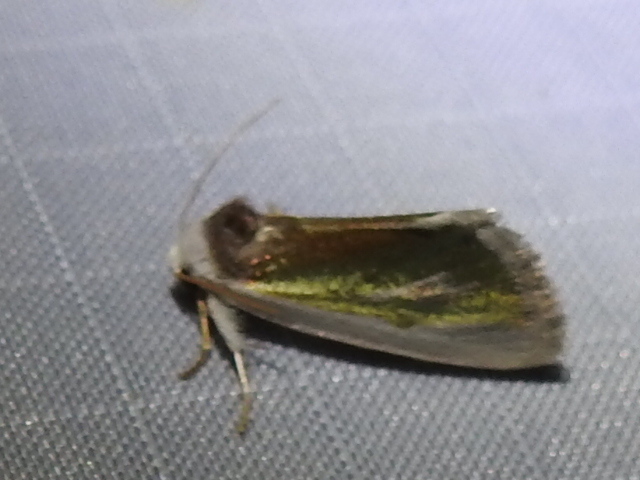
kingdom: Animalia
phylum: Arthropoda
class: Insecta
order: Lepidoptera
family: Noctuidae
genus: Neumoegenia
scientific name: Neumoegenia poetica
